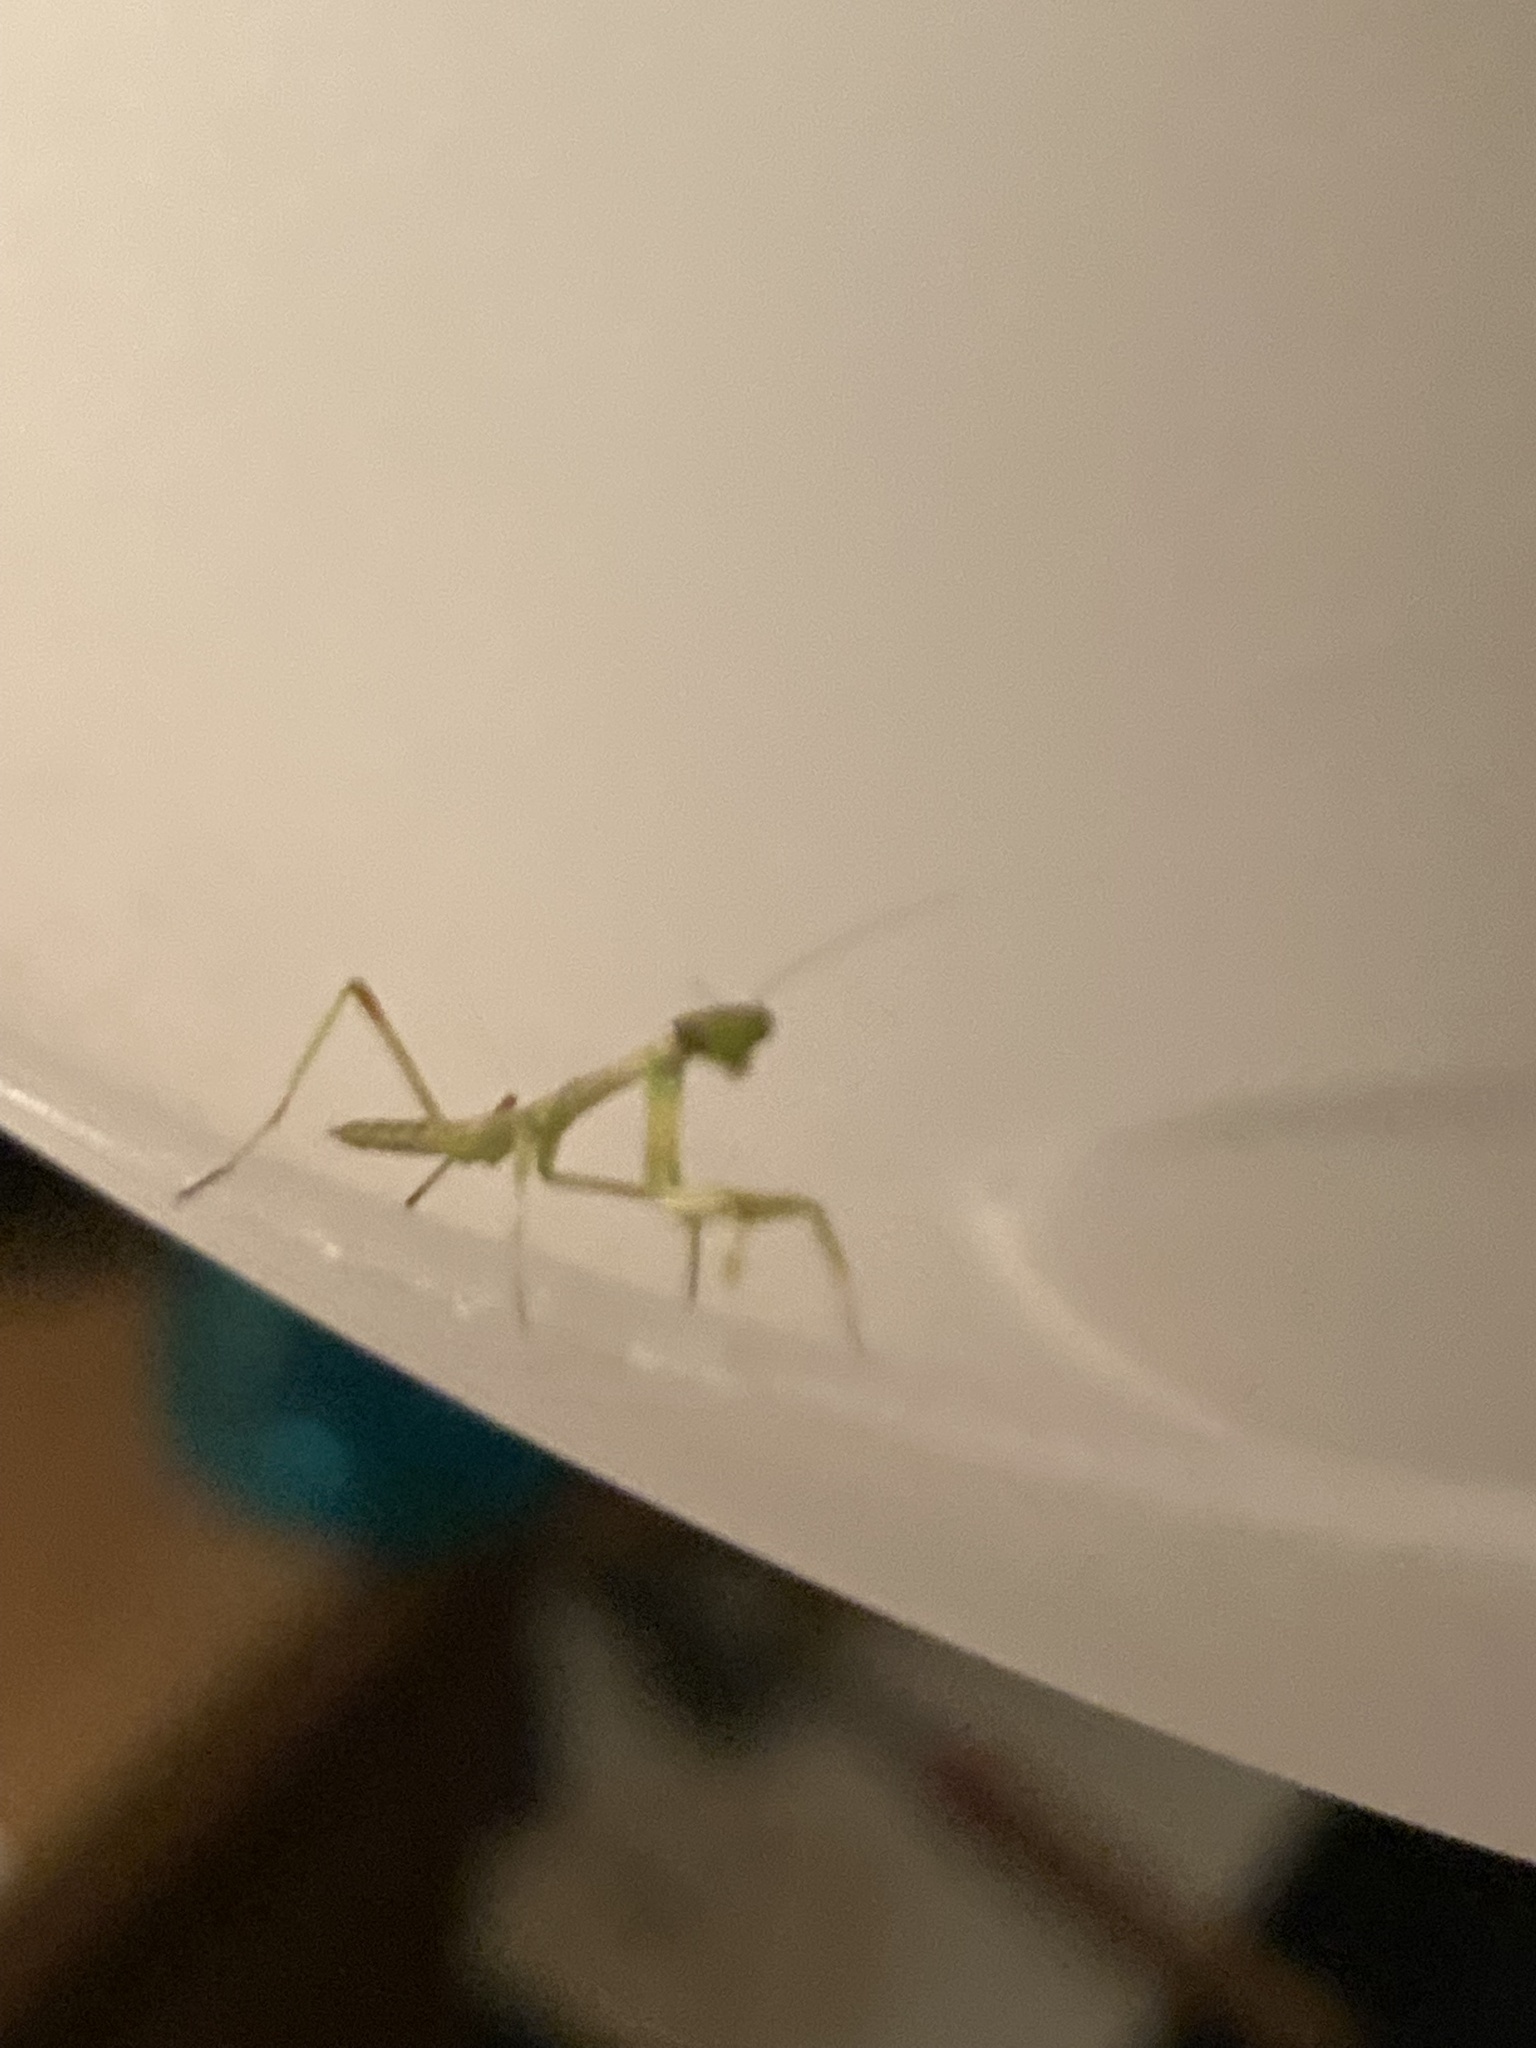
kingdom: Animalia
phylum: Arthropoda
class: Insecta
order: Mantodea
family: Mantidae
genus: Stagmomantis
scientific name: Stagmomantis carolina
